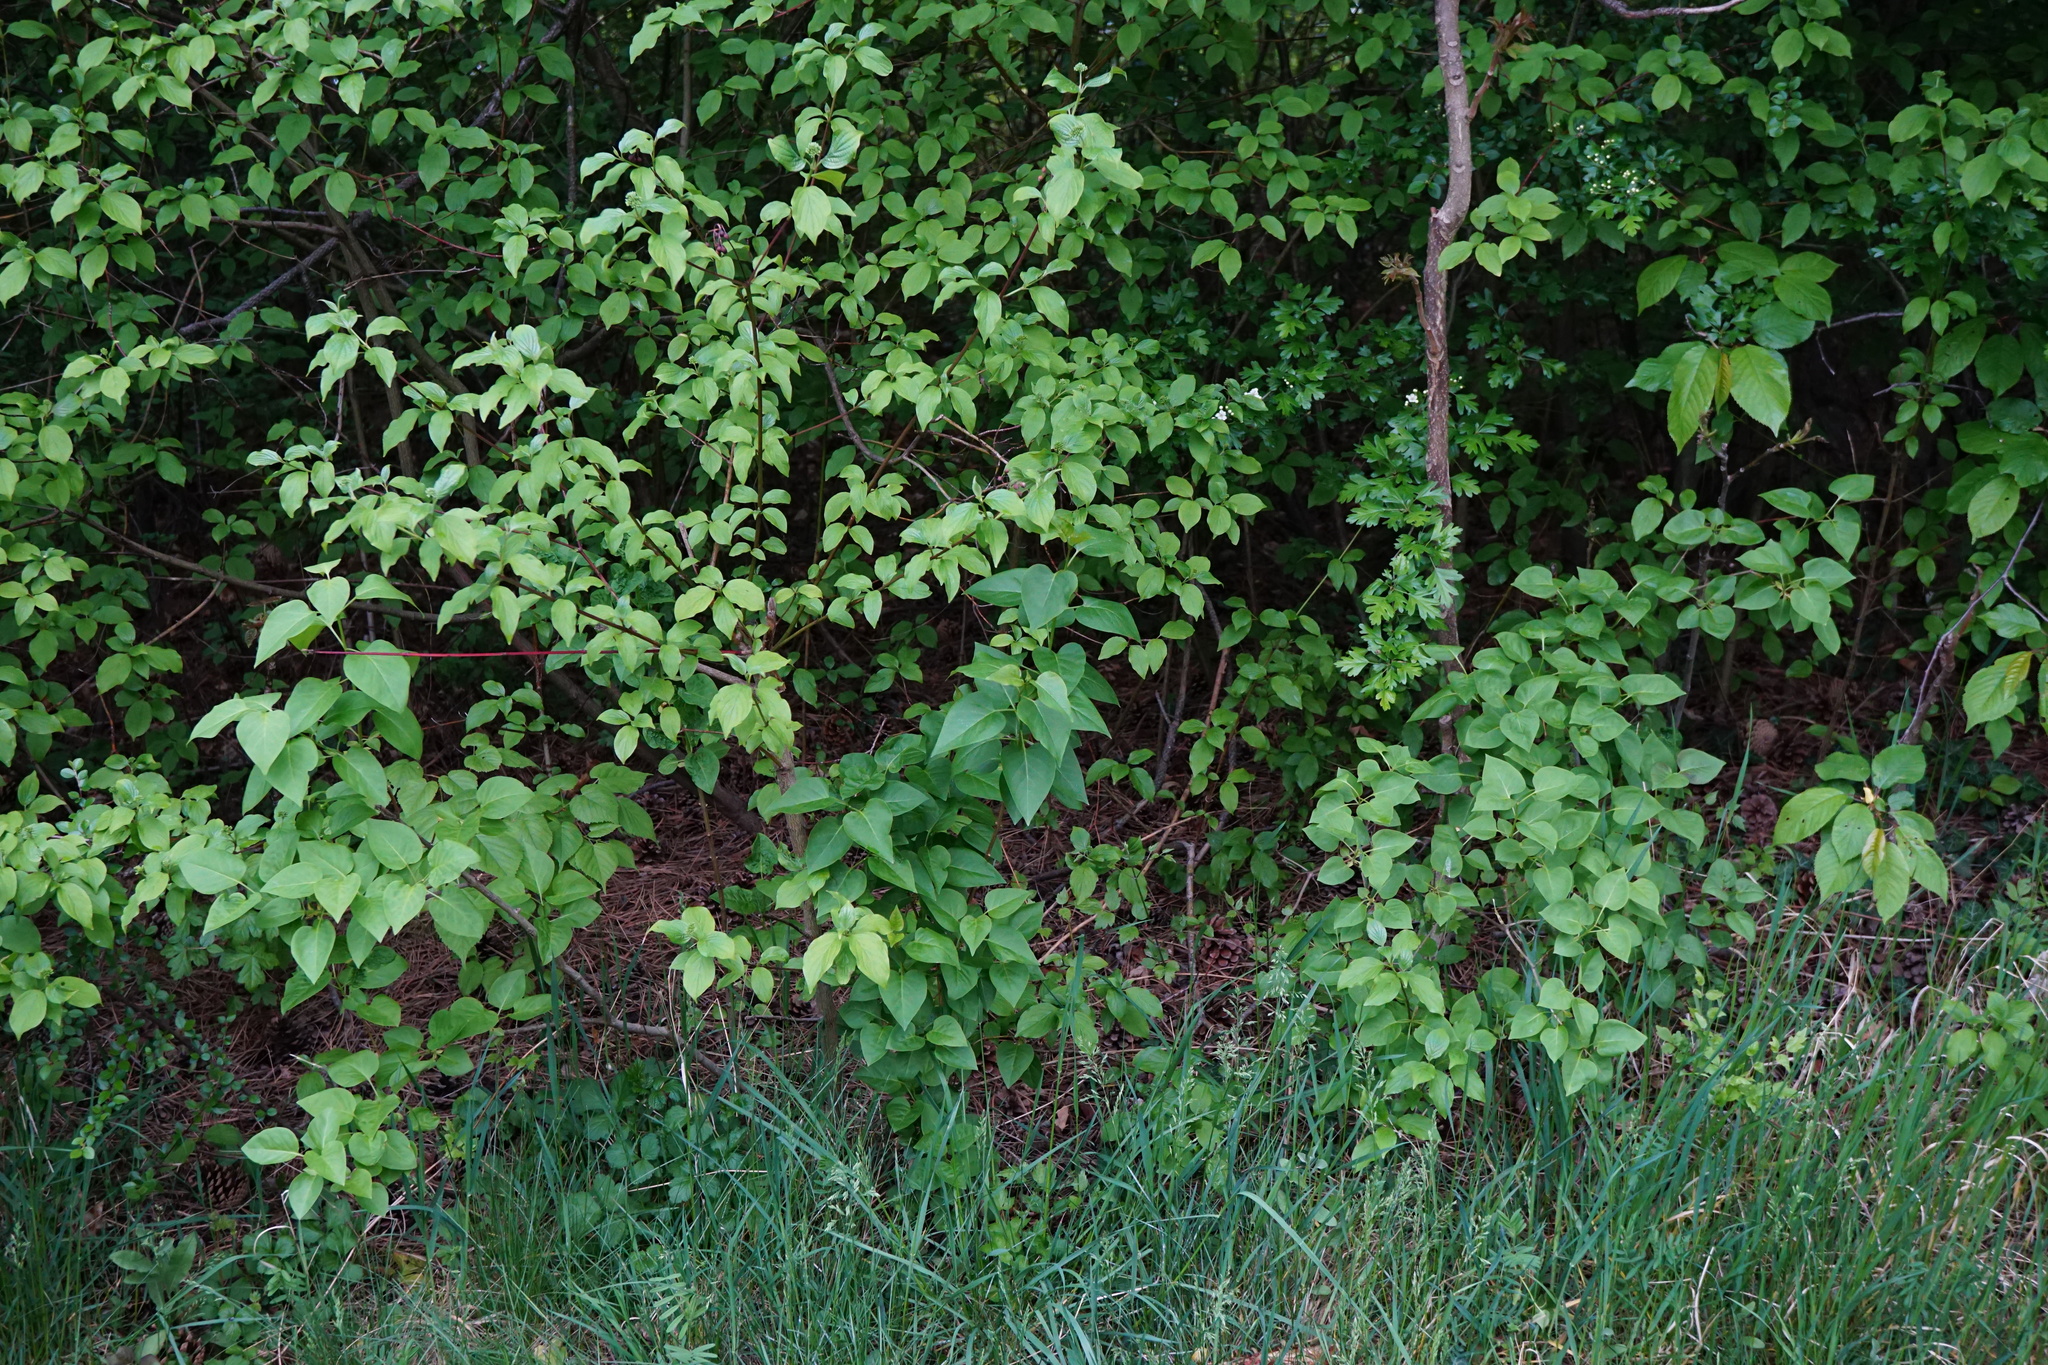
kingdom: Plantae
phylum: Tracheophyta
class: Magnoliopsida
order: Lamiales
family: Oleaceae
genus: Syringa
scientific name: Syringa vulgaris
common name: Common lilac
